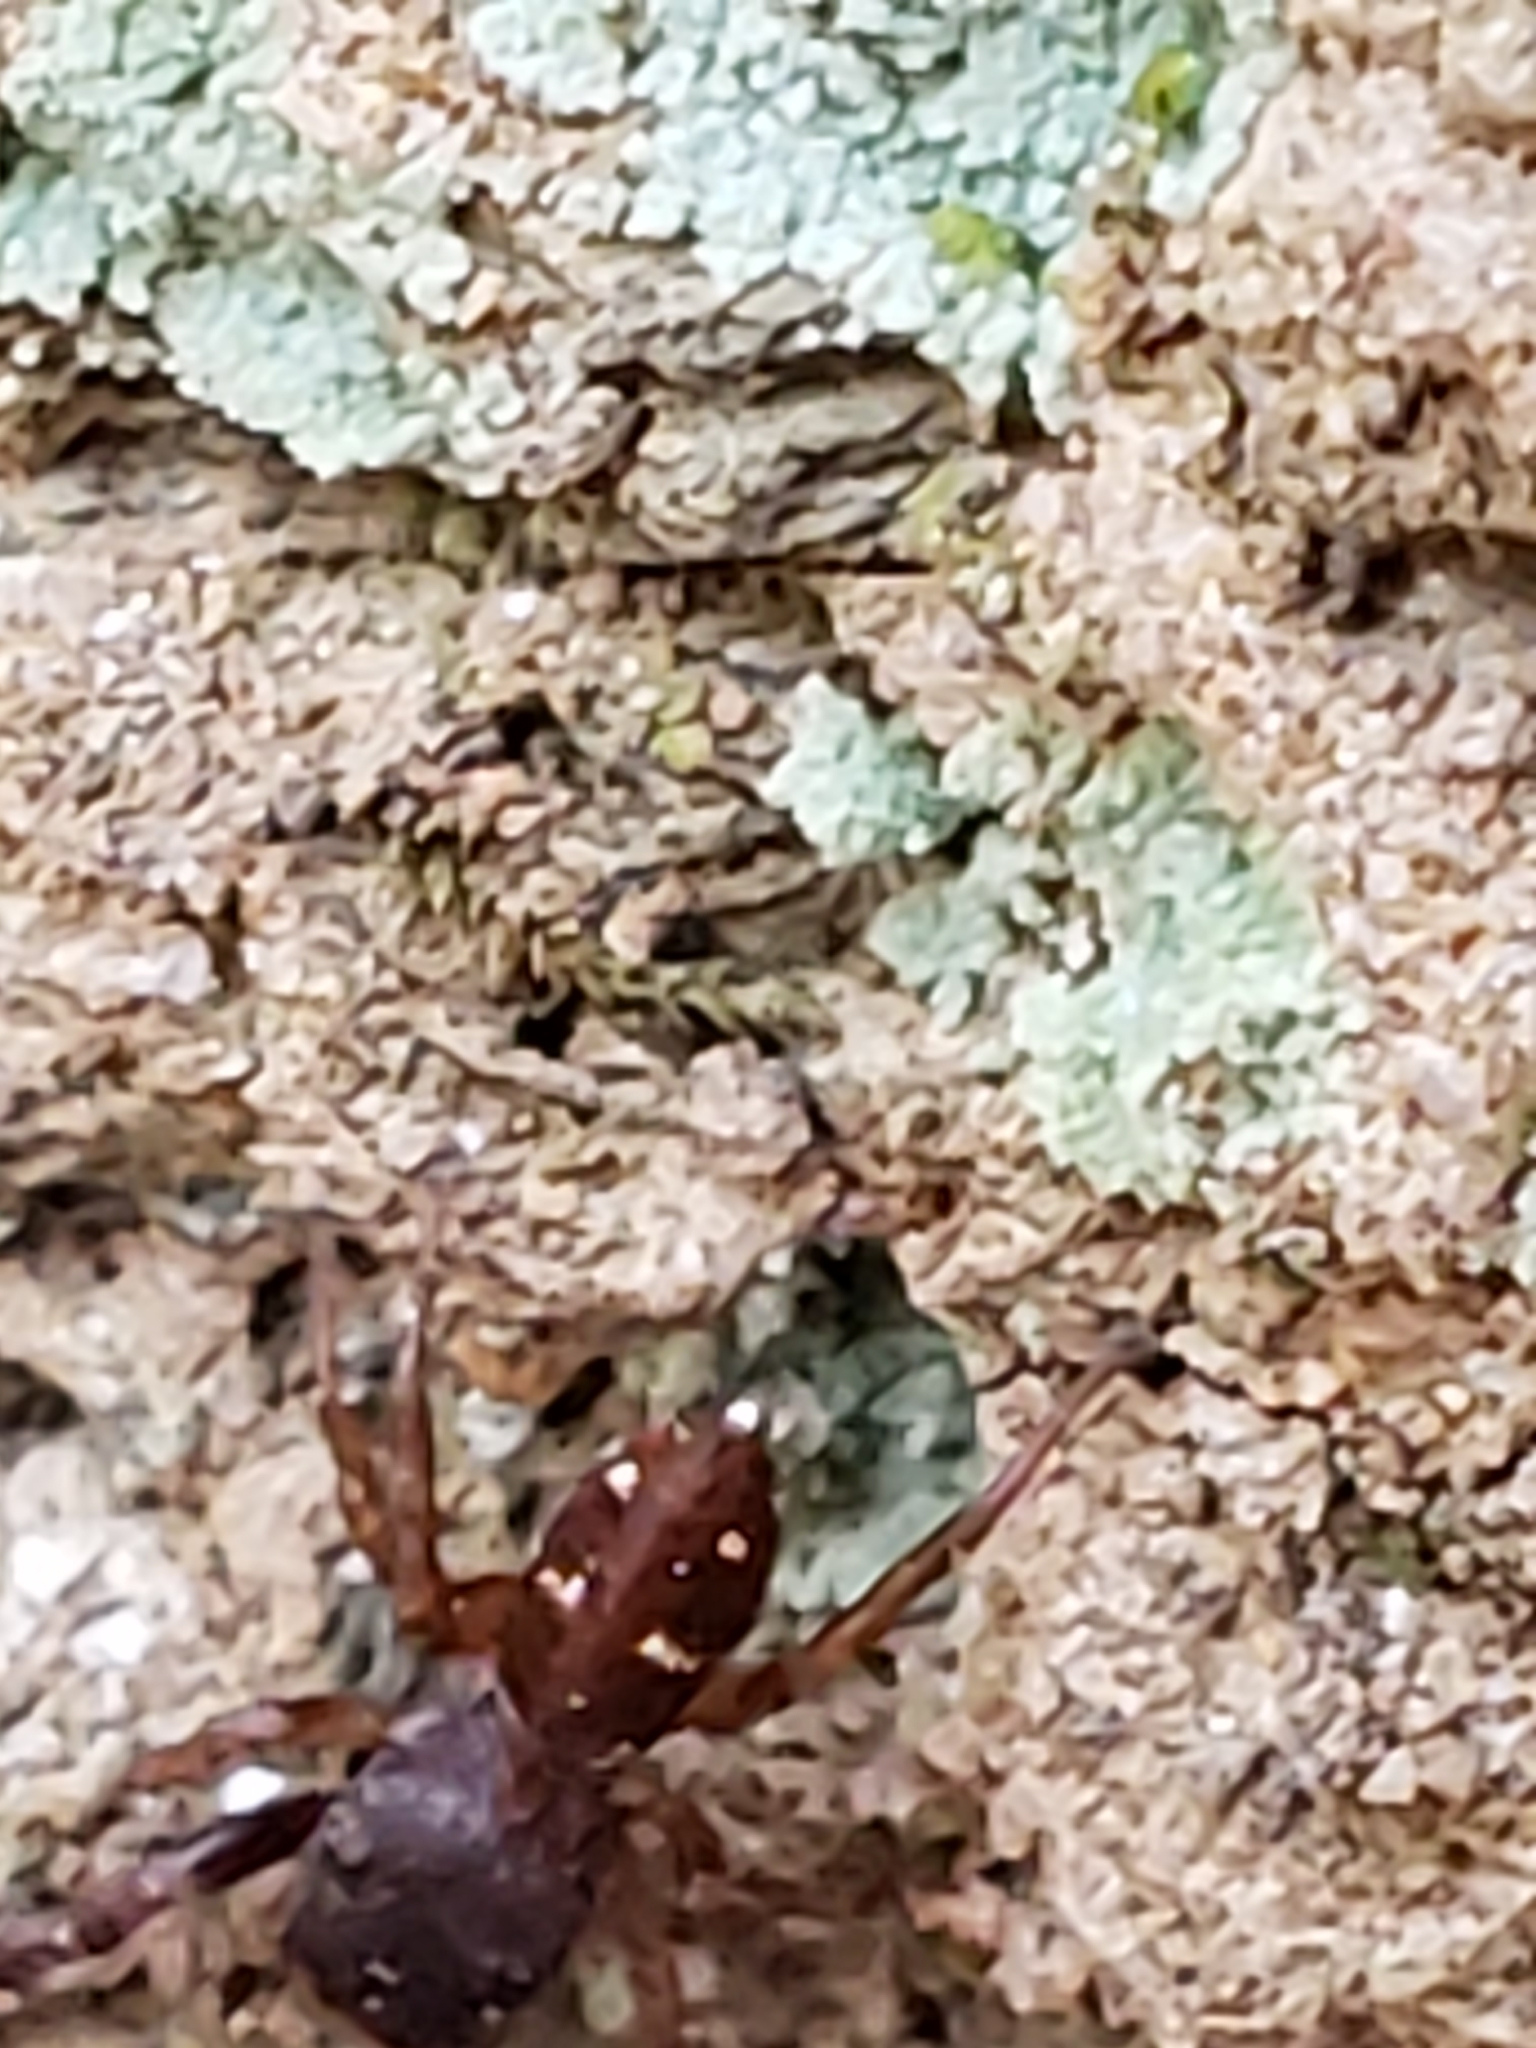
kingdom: Animalia
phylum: Arthropoda
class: Arachnida
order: Araneae
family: Salticidae
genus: Ghelna
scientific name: Ghelna sexmaculata
